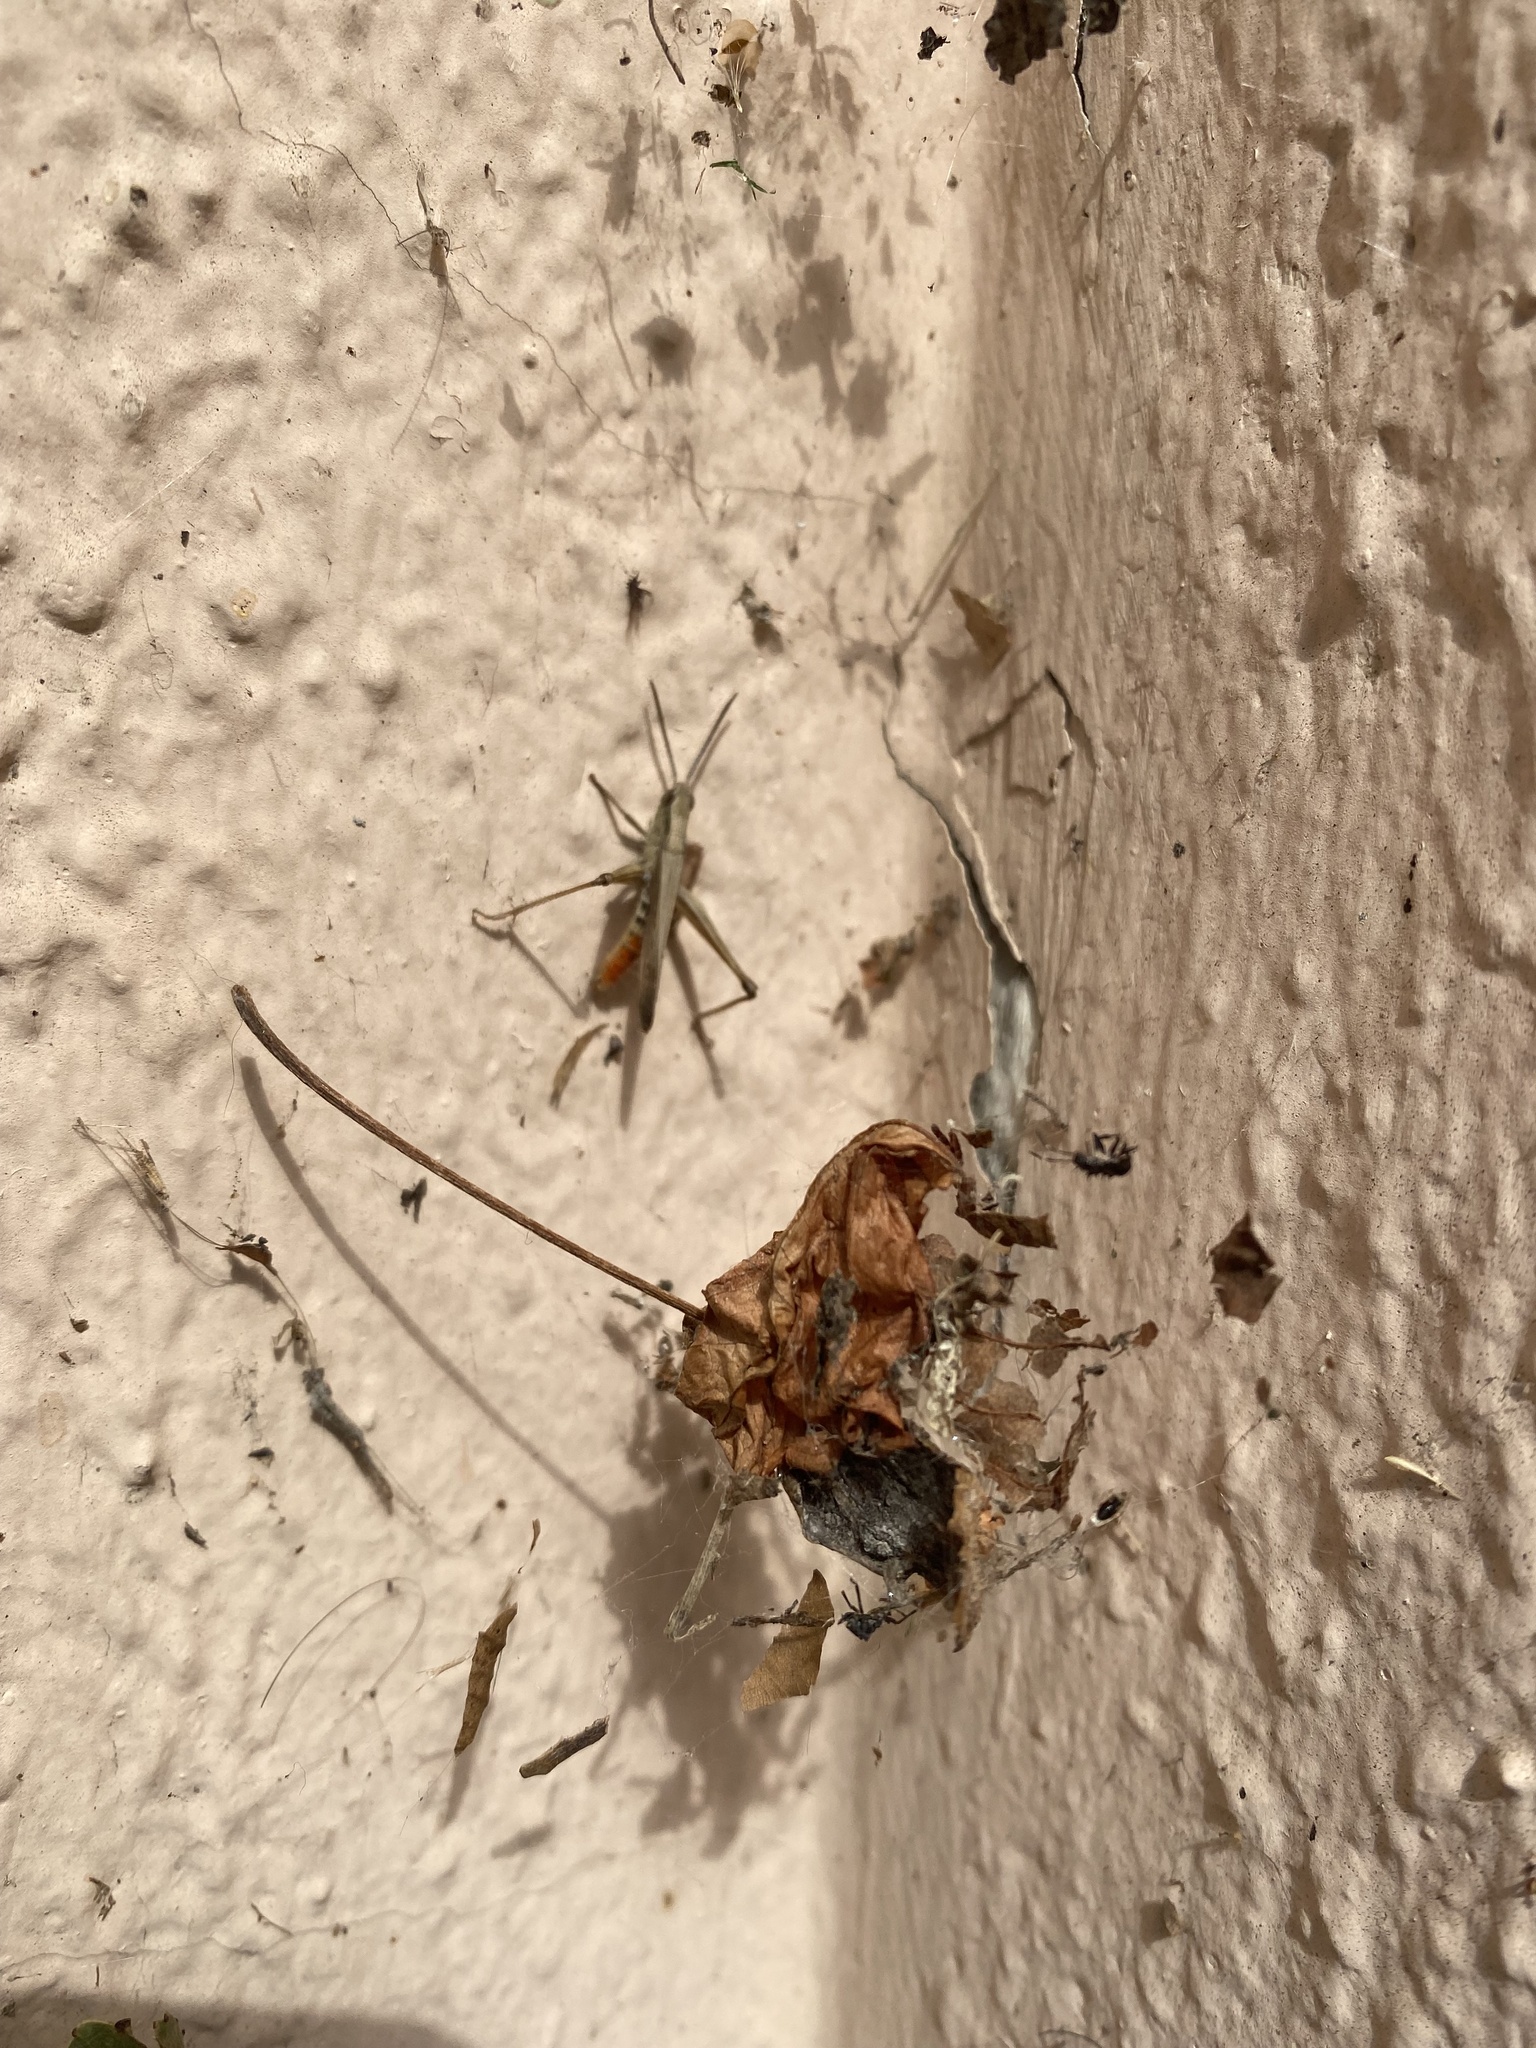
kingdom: Animalia
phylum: Arthropoda
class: Insecta
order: Orthoptera
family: Acrididae
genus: Chorthippus
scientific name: Chorthippus
